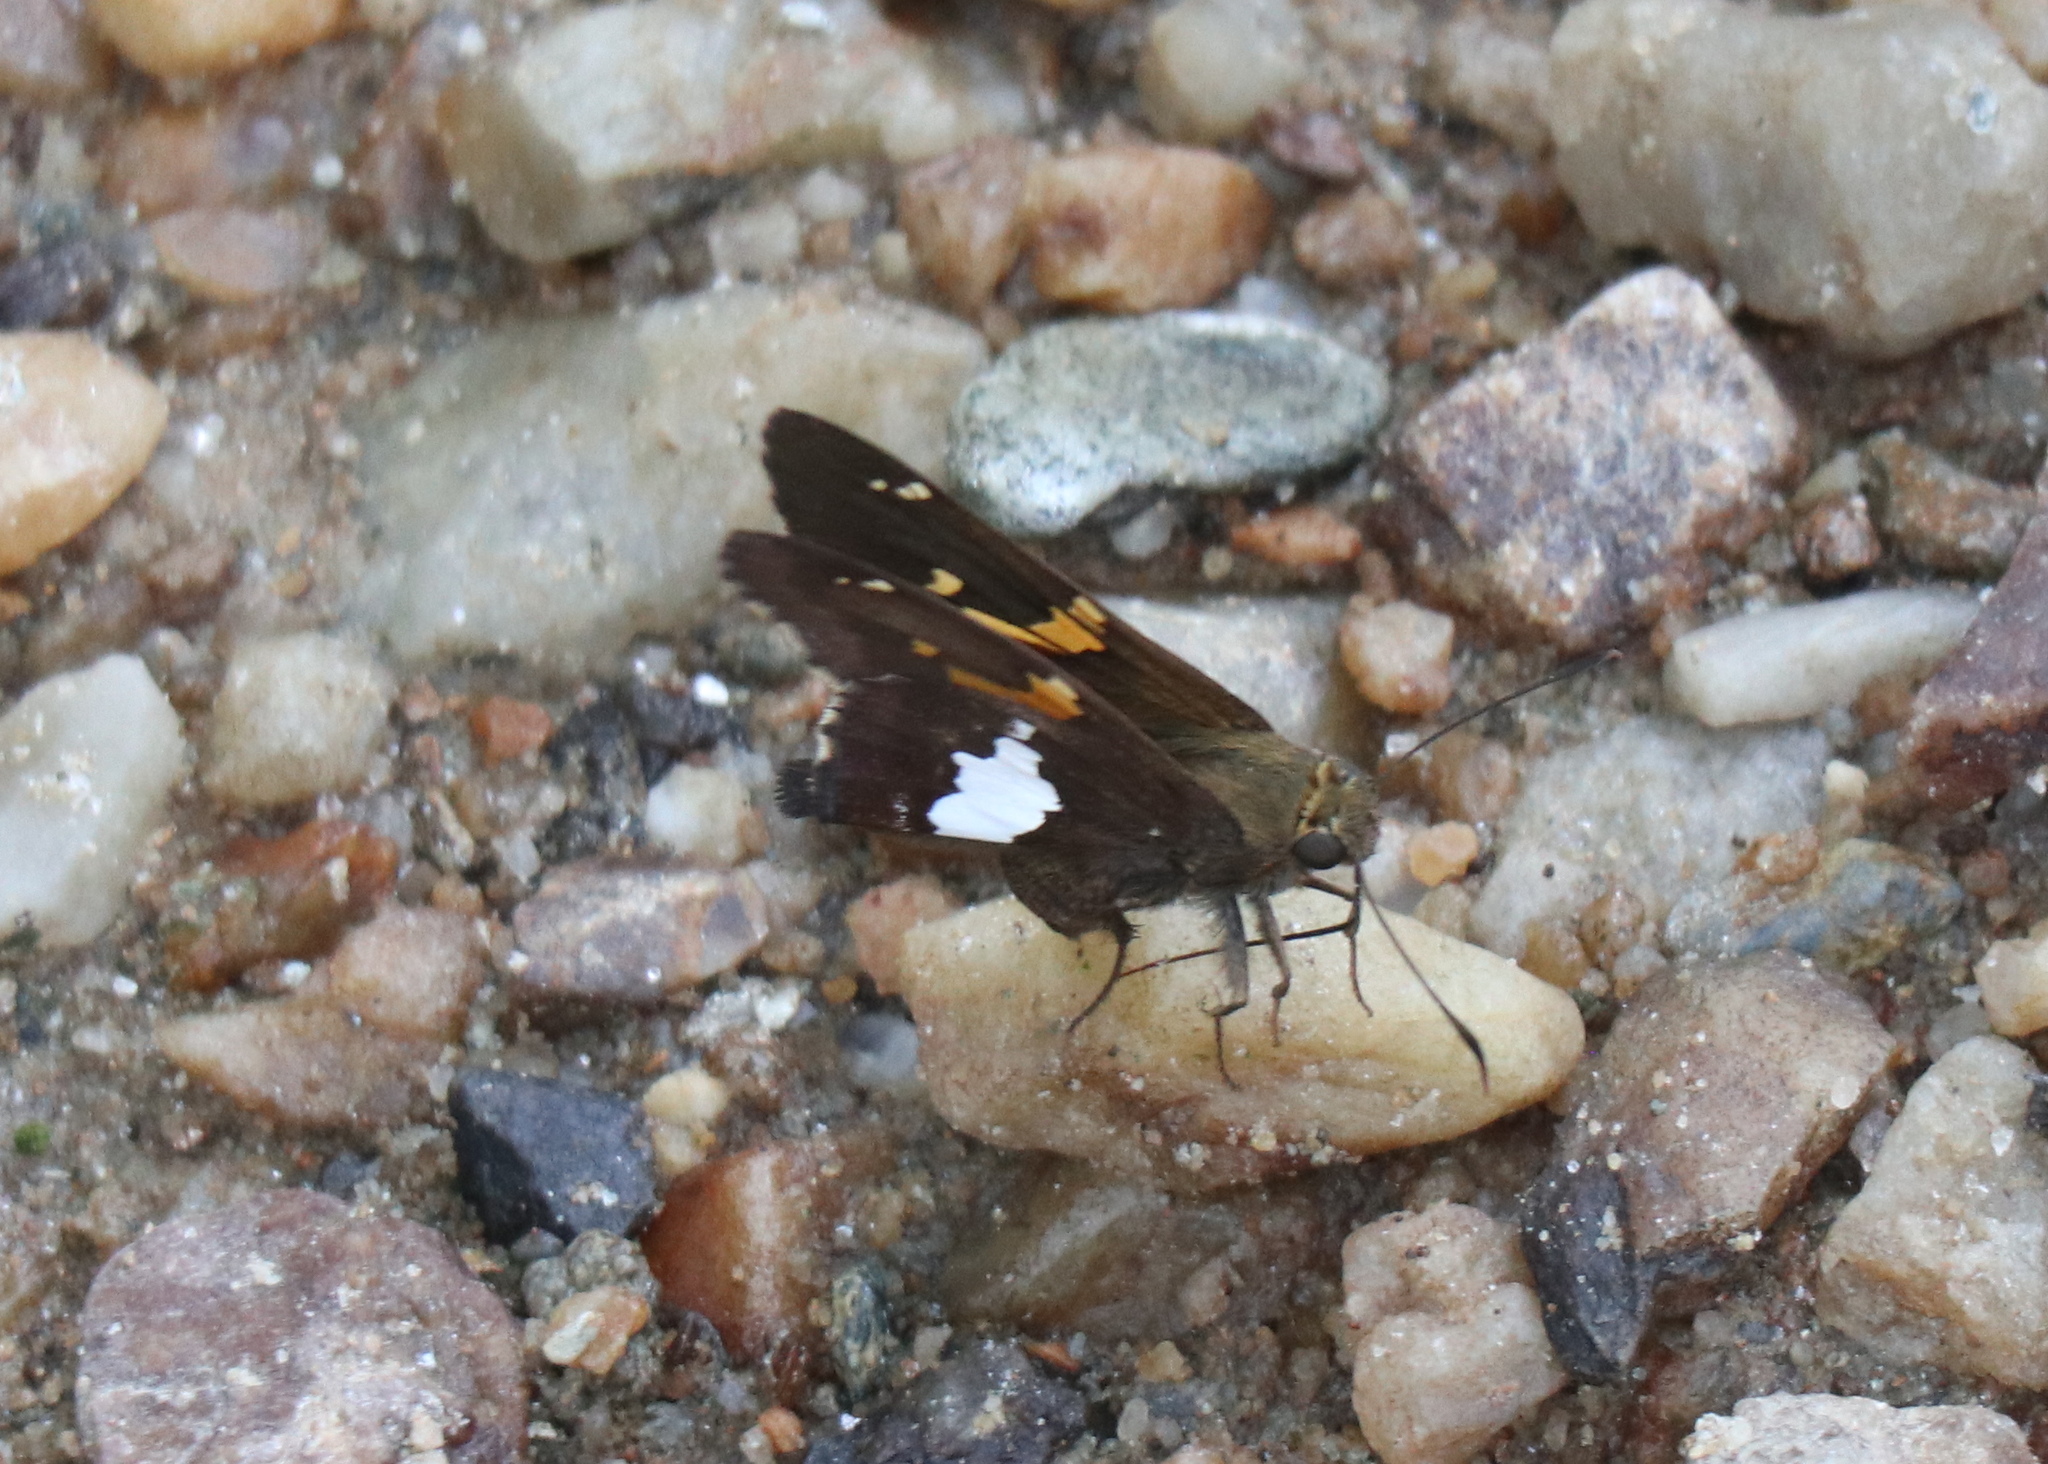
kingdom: Animalia
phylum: Arthropoda
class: Insecta
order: Lepidoptera
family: Hesperiidae
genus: Epargyreus
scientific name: Epargyreus clarus
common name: Silver-spotted skipper
